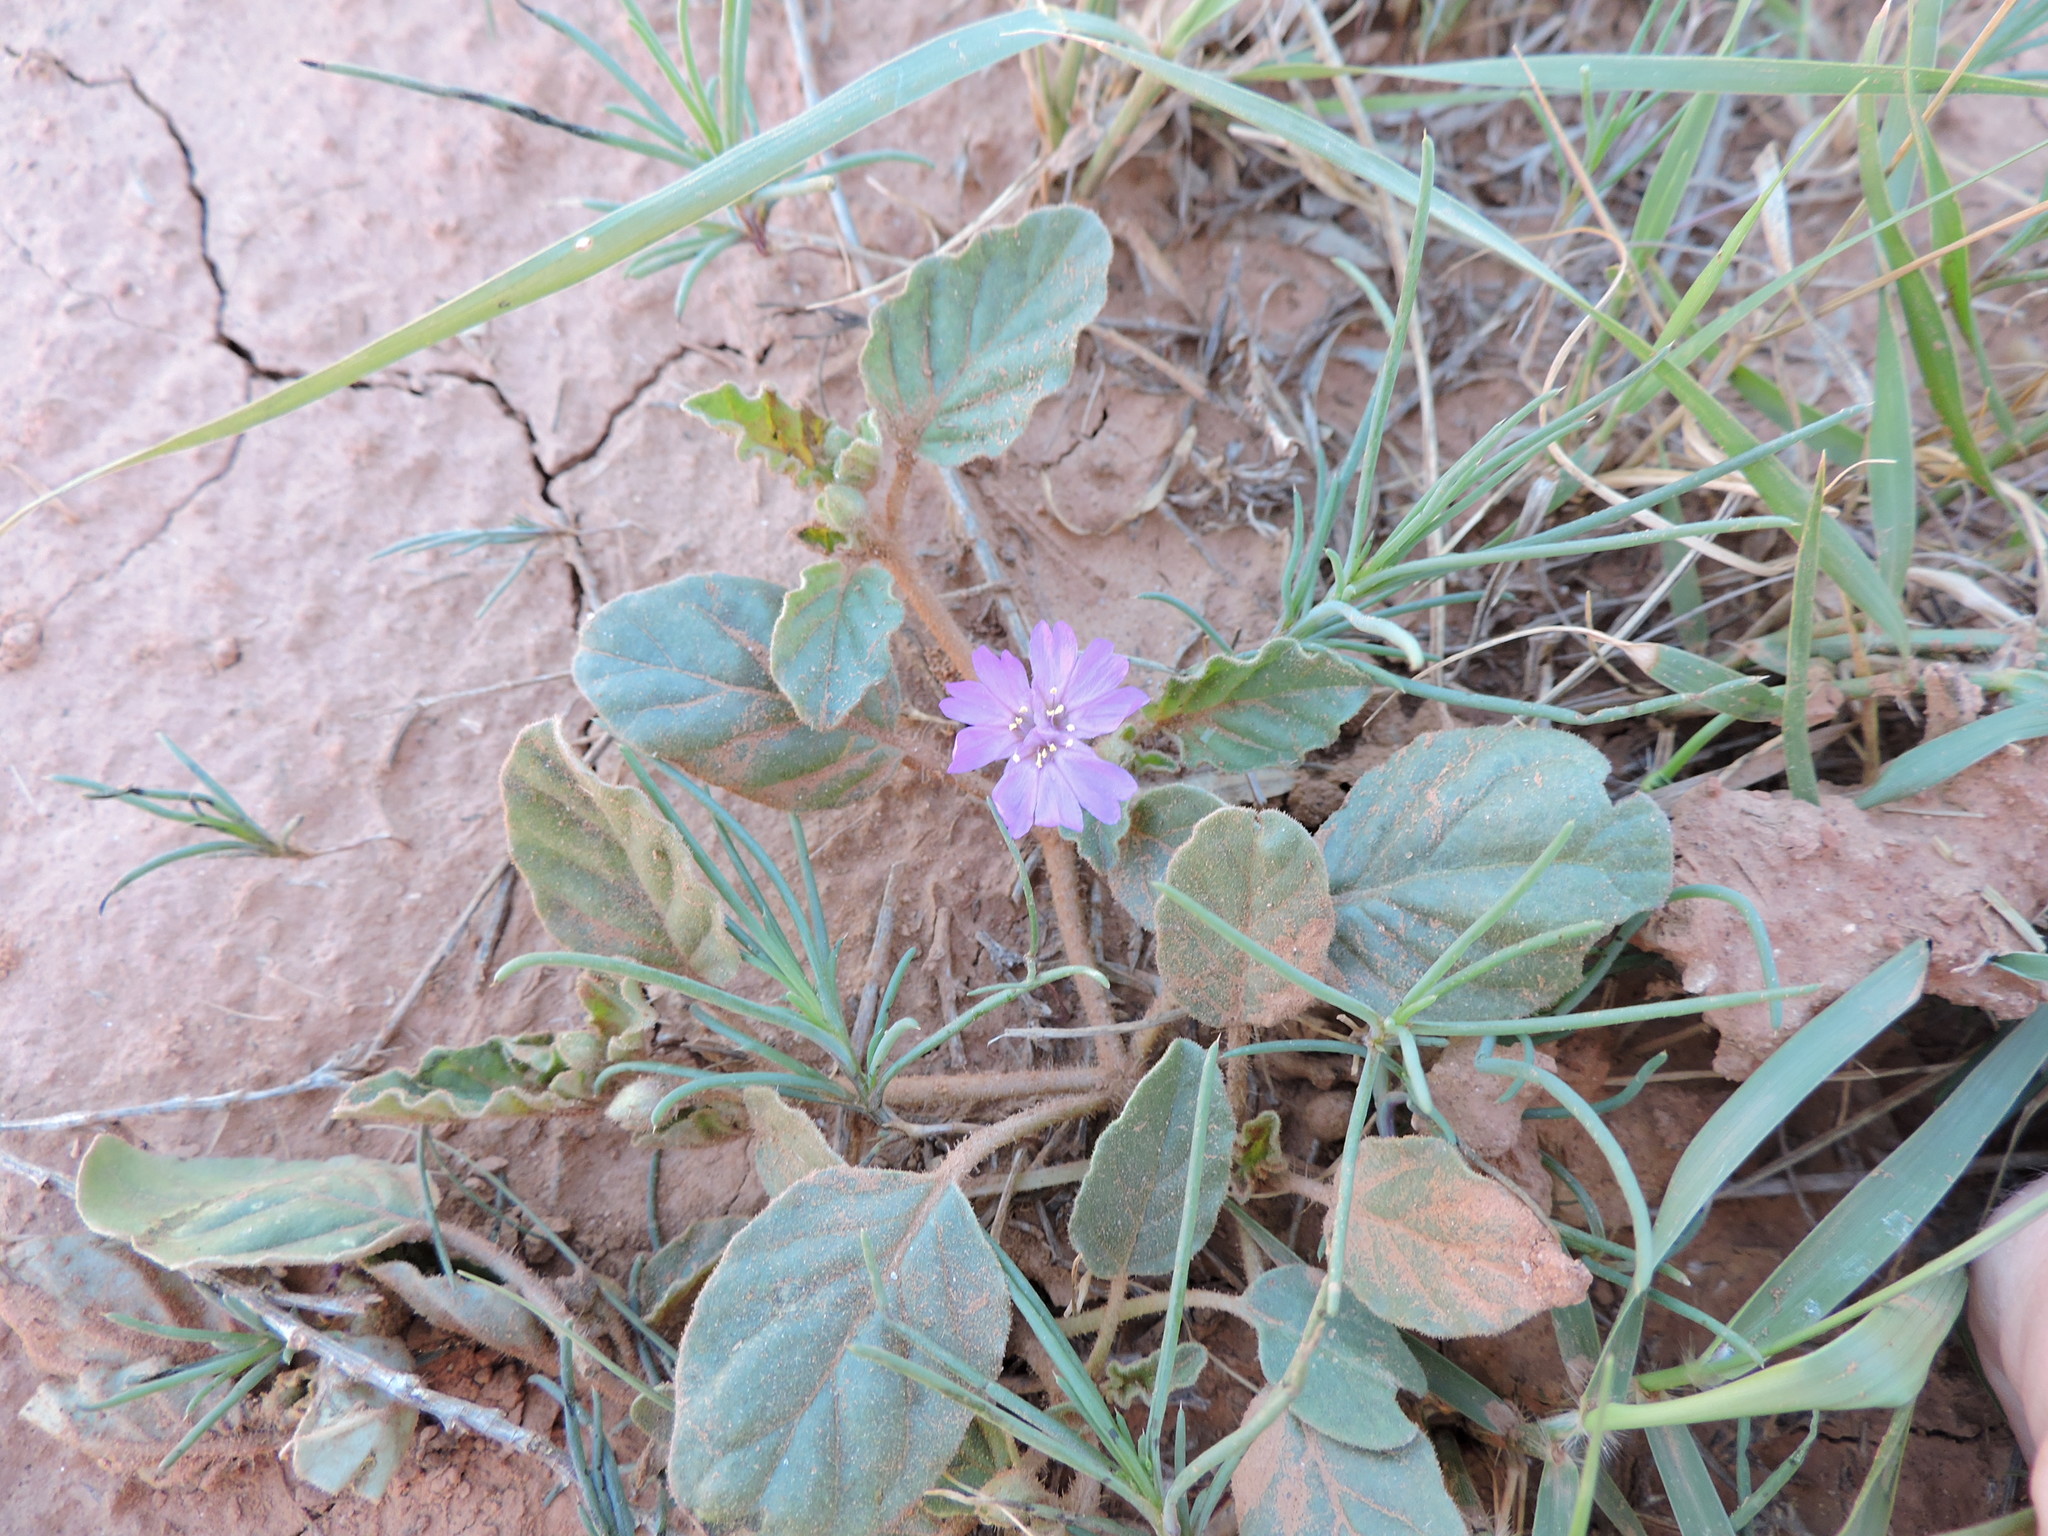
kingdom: Plantae
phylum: Tracheophyta
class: Magnoliopsida
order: Caryophyllales
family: Nyctaginaceae
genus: Allionia
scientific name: Allionia incarnata
